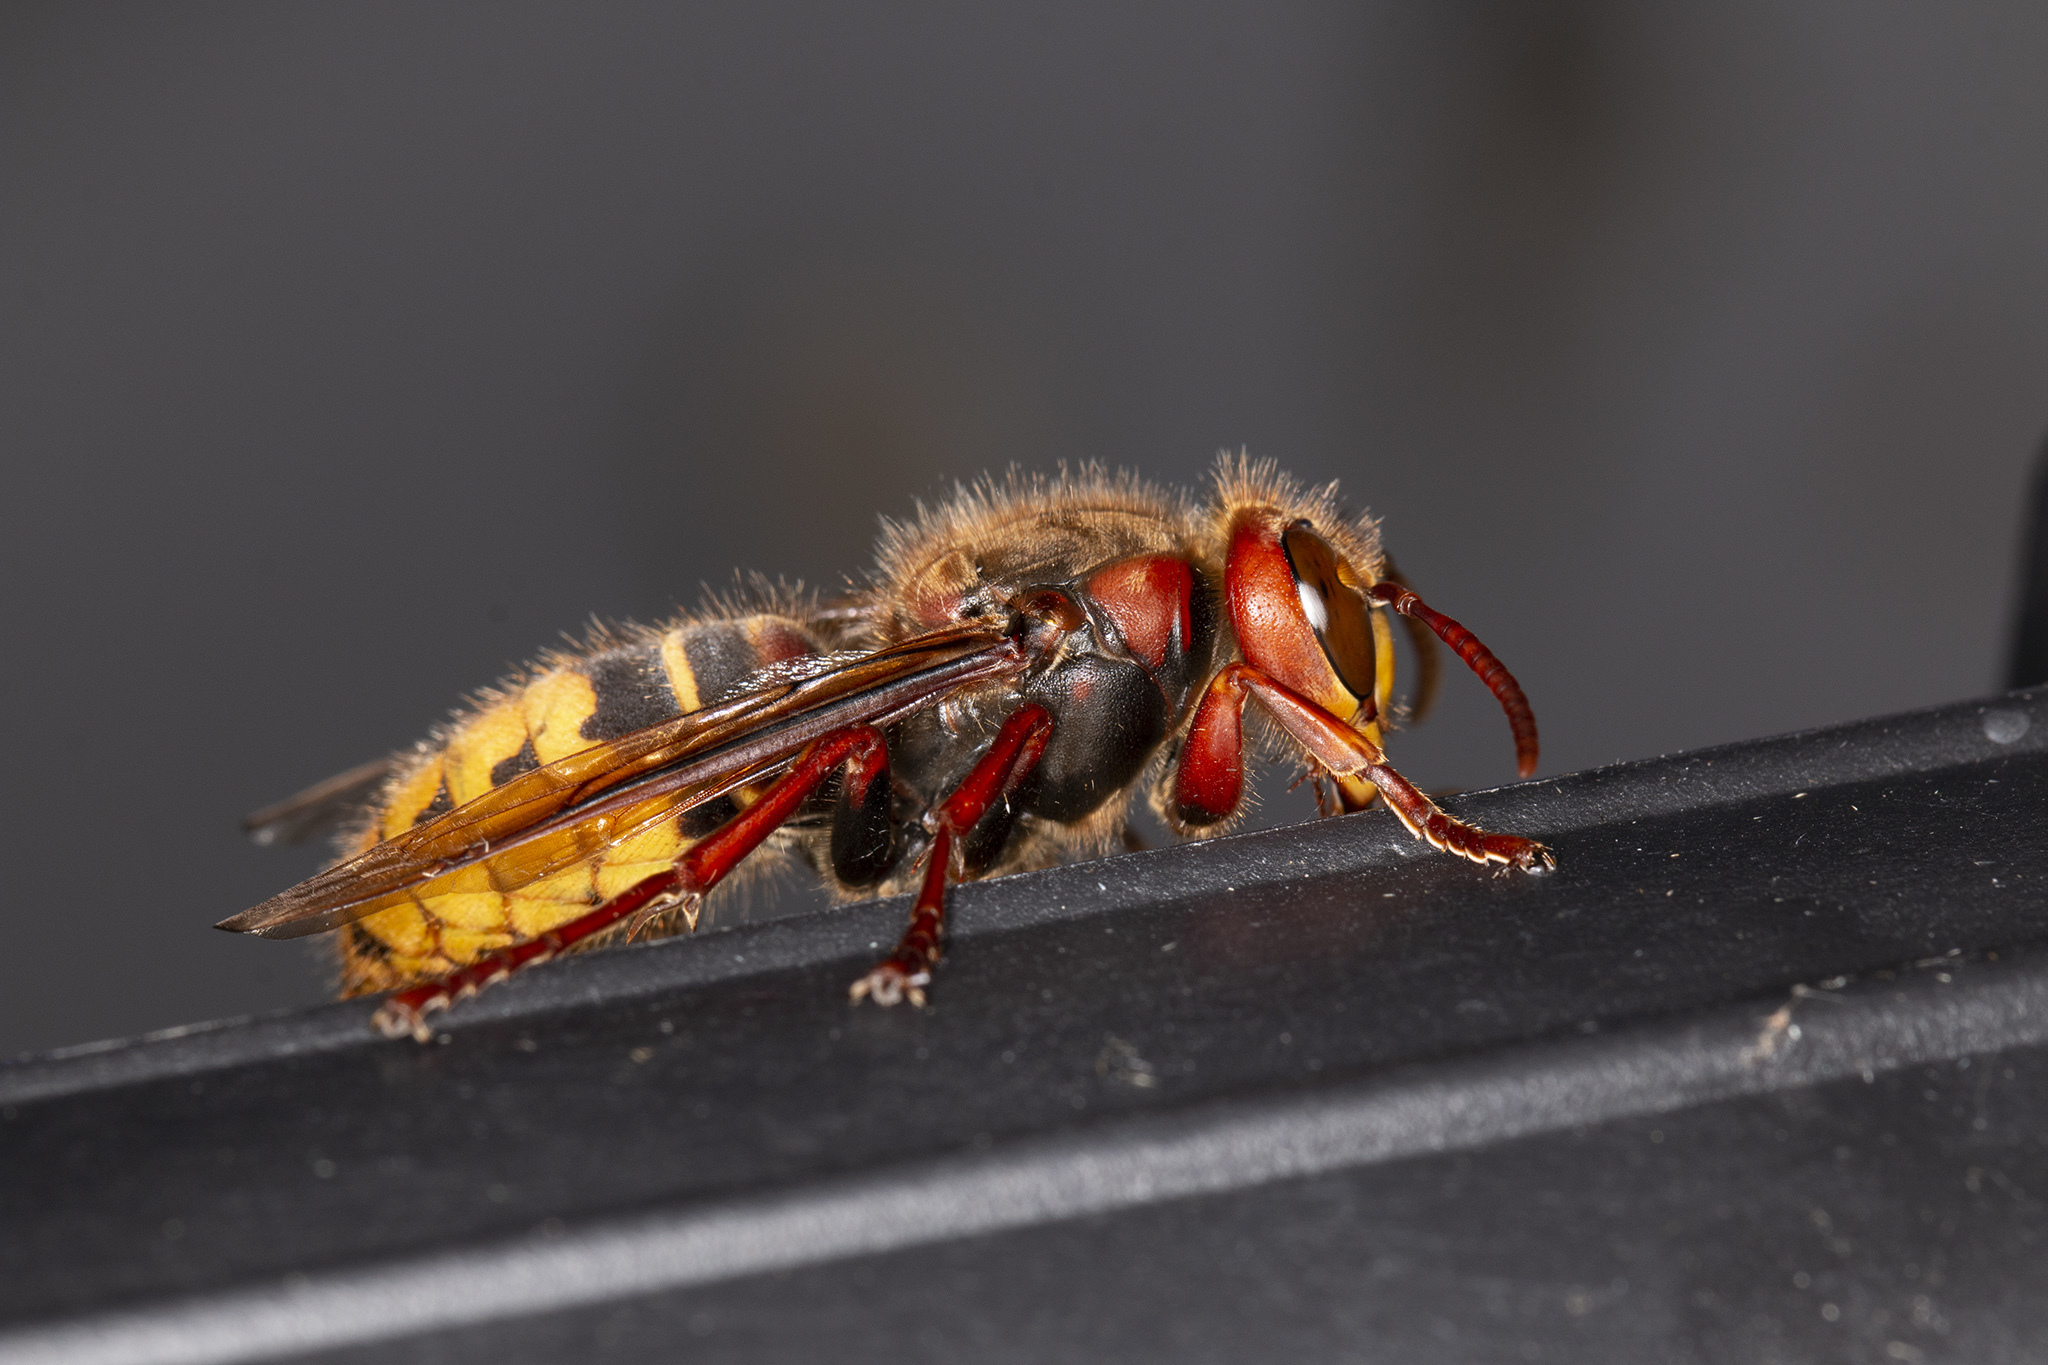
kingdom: Animalia
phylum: Arthropoda
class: Insecta
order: Hymenoptera
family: Vespidae
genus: Vespa
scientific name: Vespa crabro
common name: Hornet
